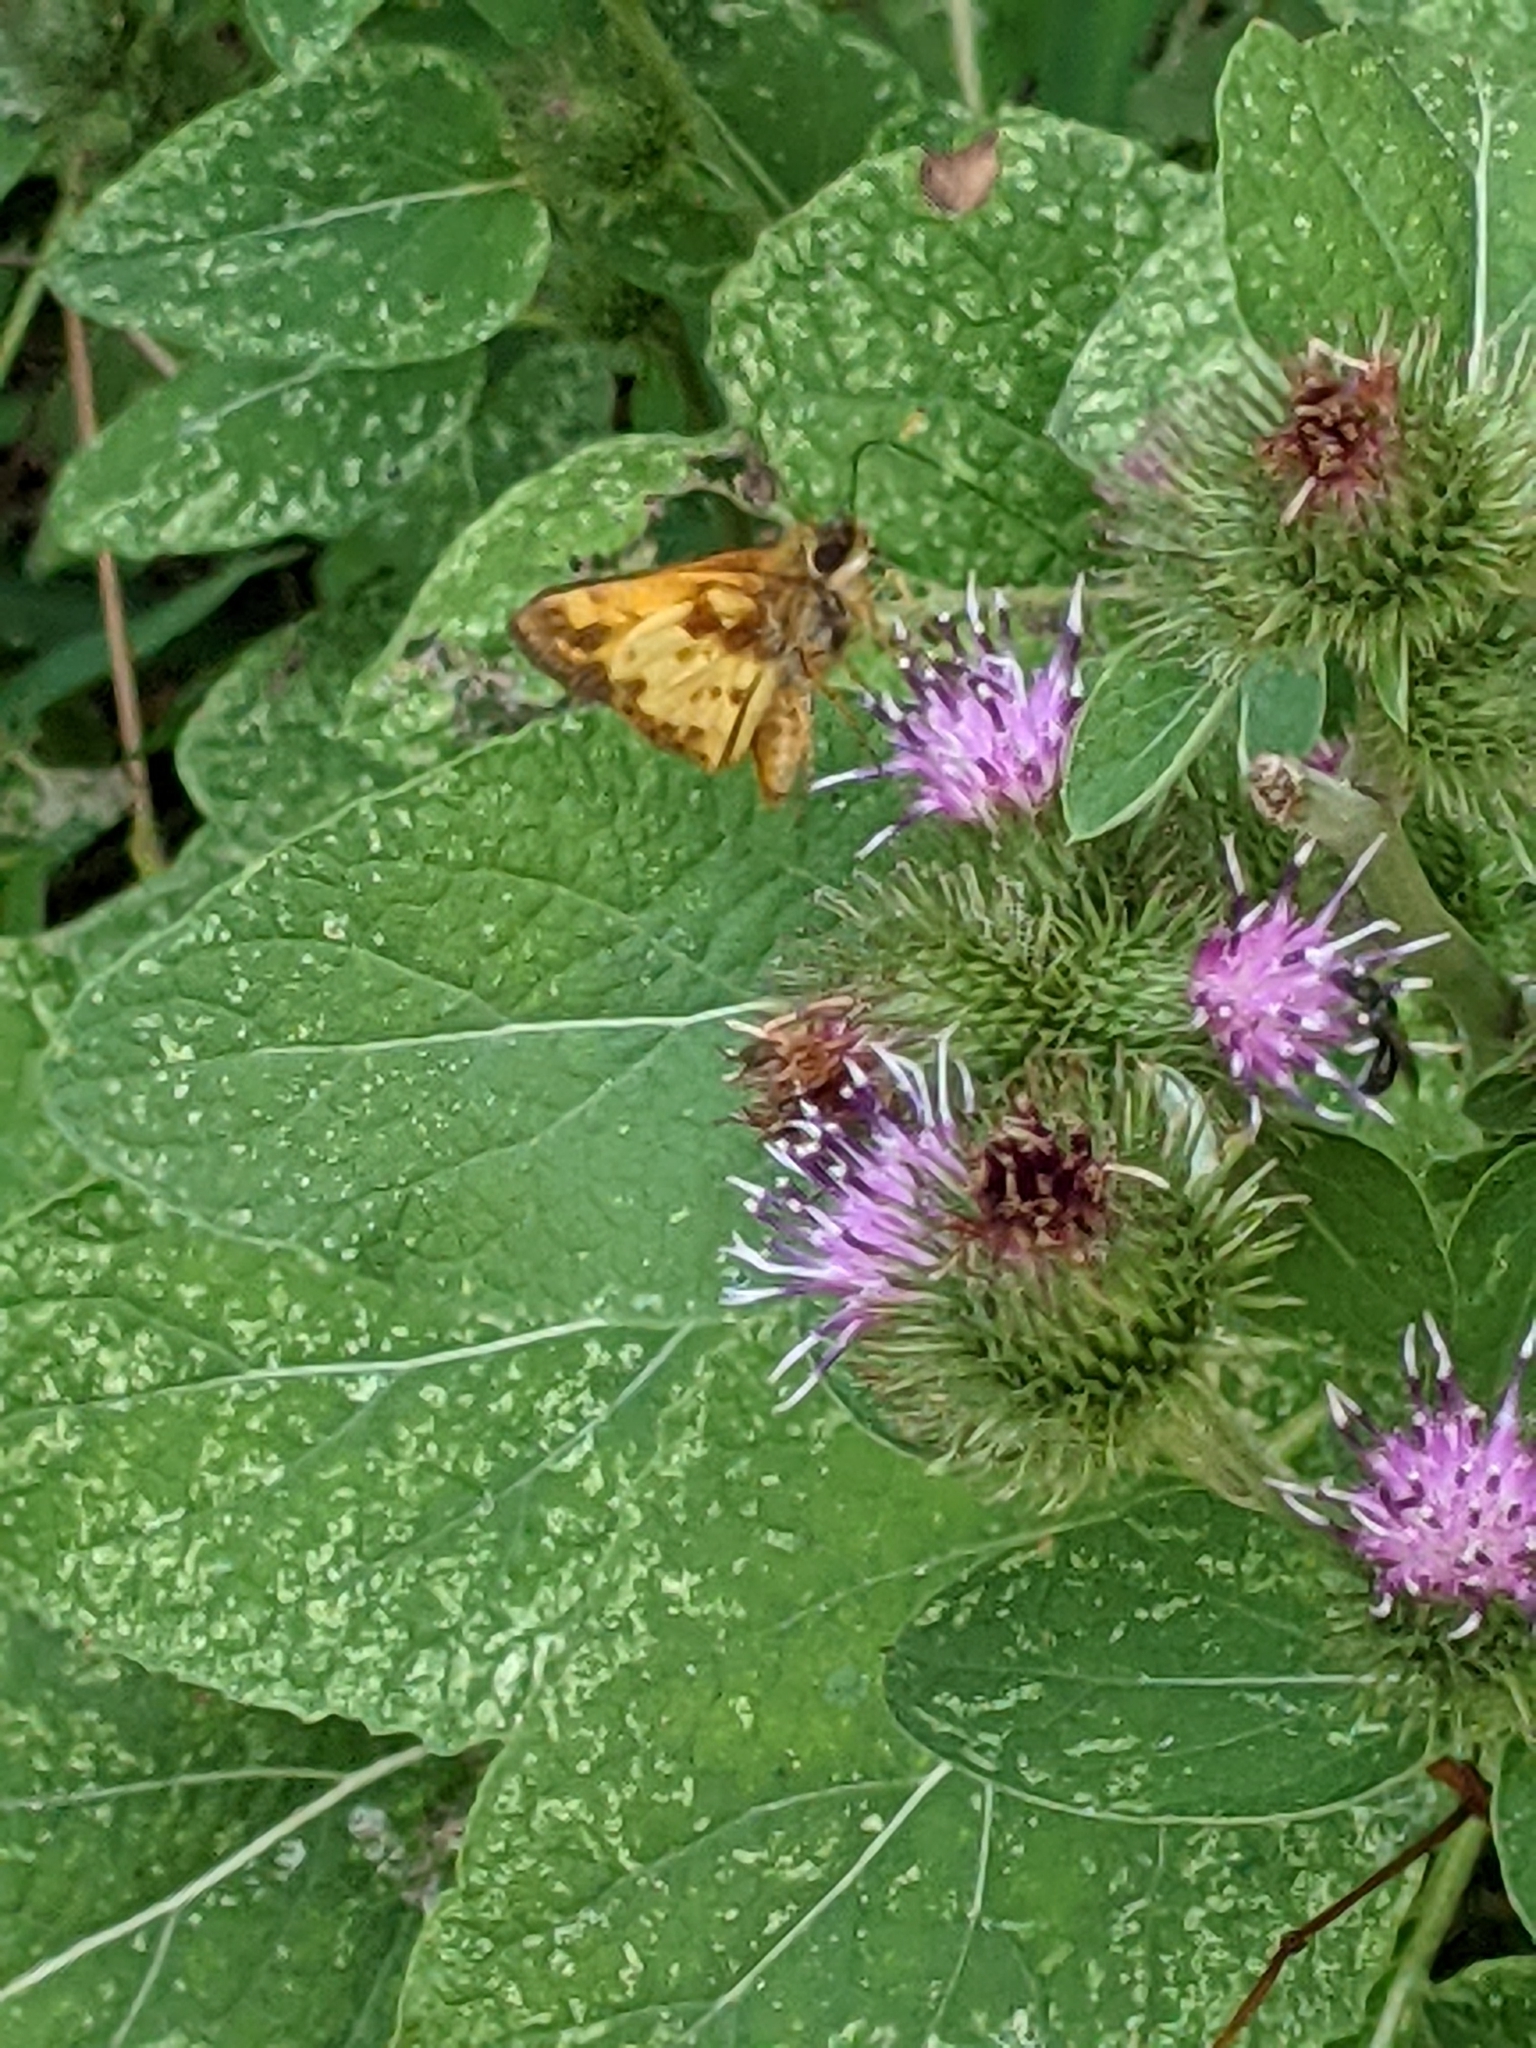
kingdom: Animalia
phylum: Arthropoda
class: Insecta
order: Lepidoptera
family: Hesperiidae
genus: Lon
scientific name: Lon zabulon
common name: Zabulon skipper
